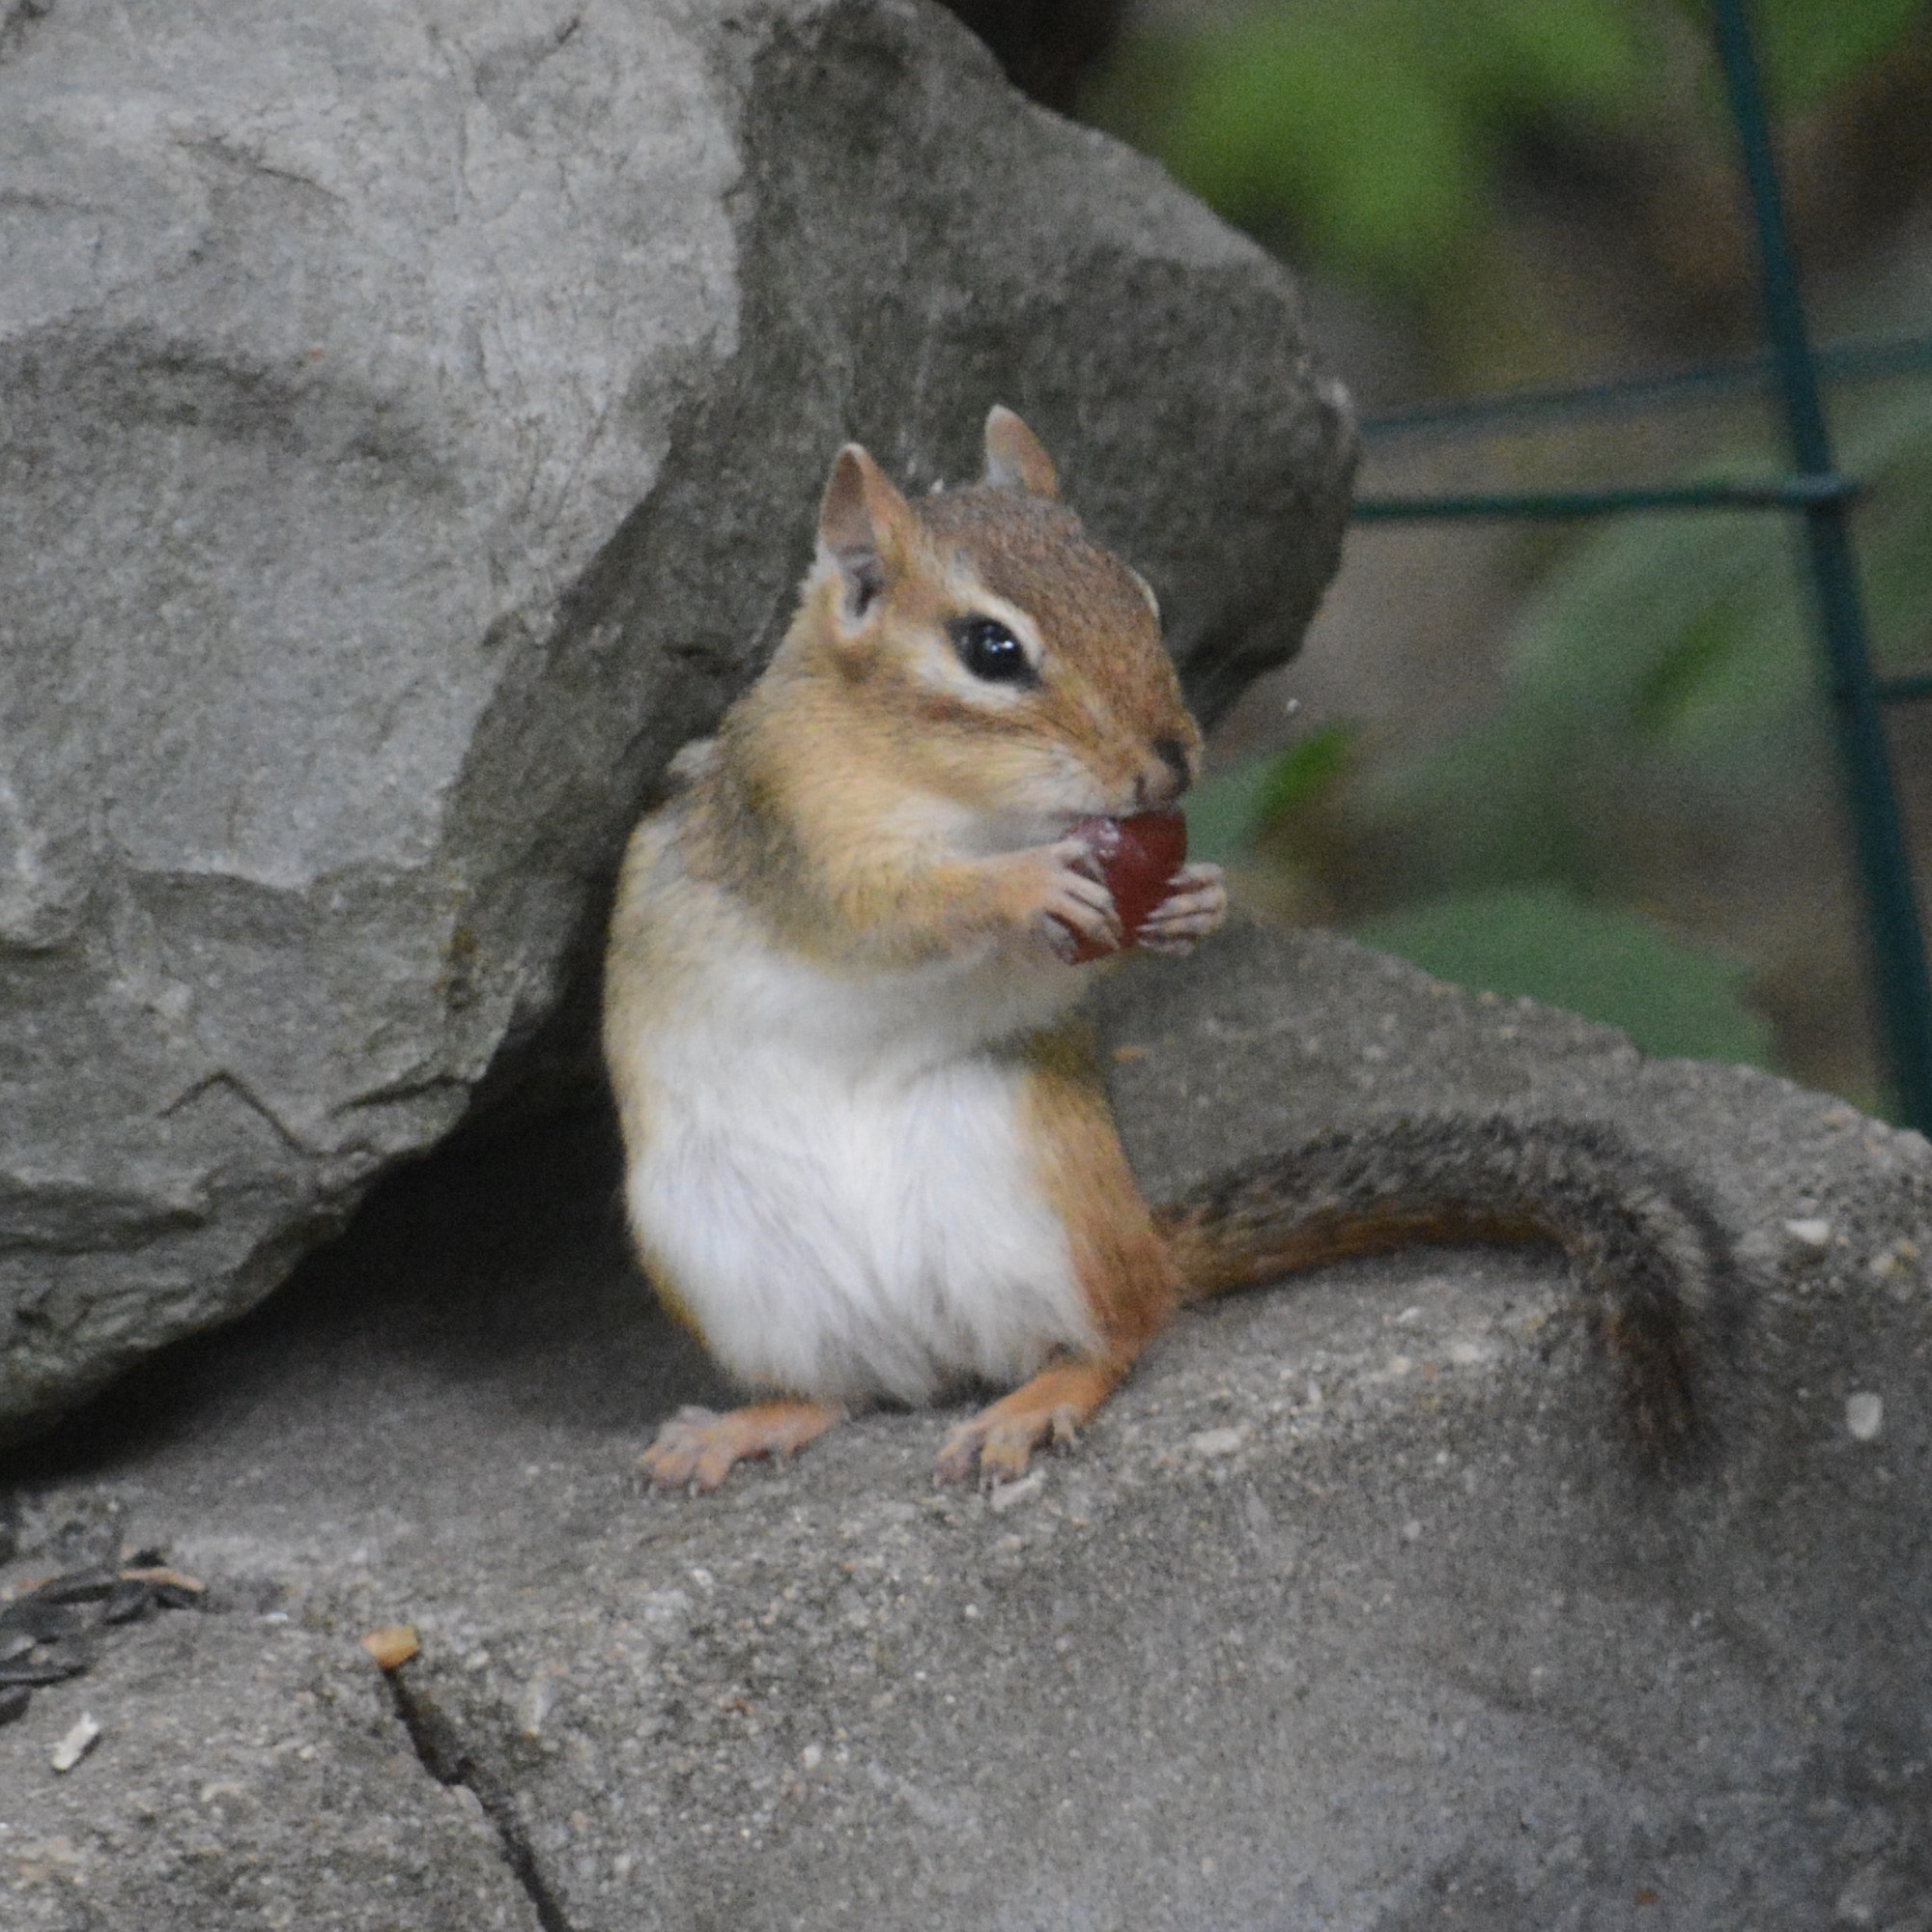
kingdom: Animalia
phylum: Chordata
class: Mammalia
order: Rodentia
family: Sciuridae
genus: Tamias
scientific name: Tamias striatus
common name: Eastern chipmunk
